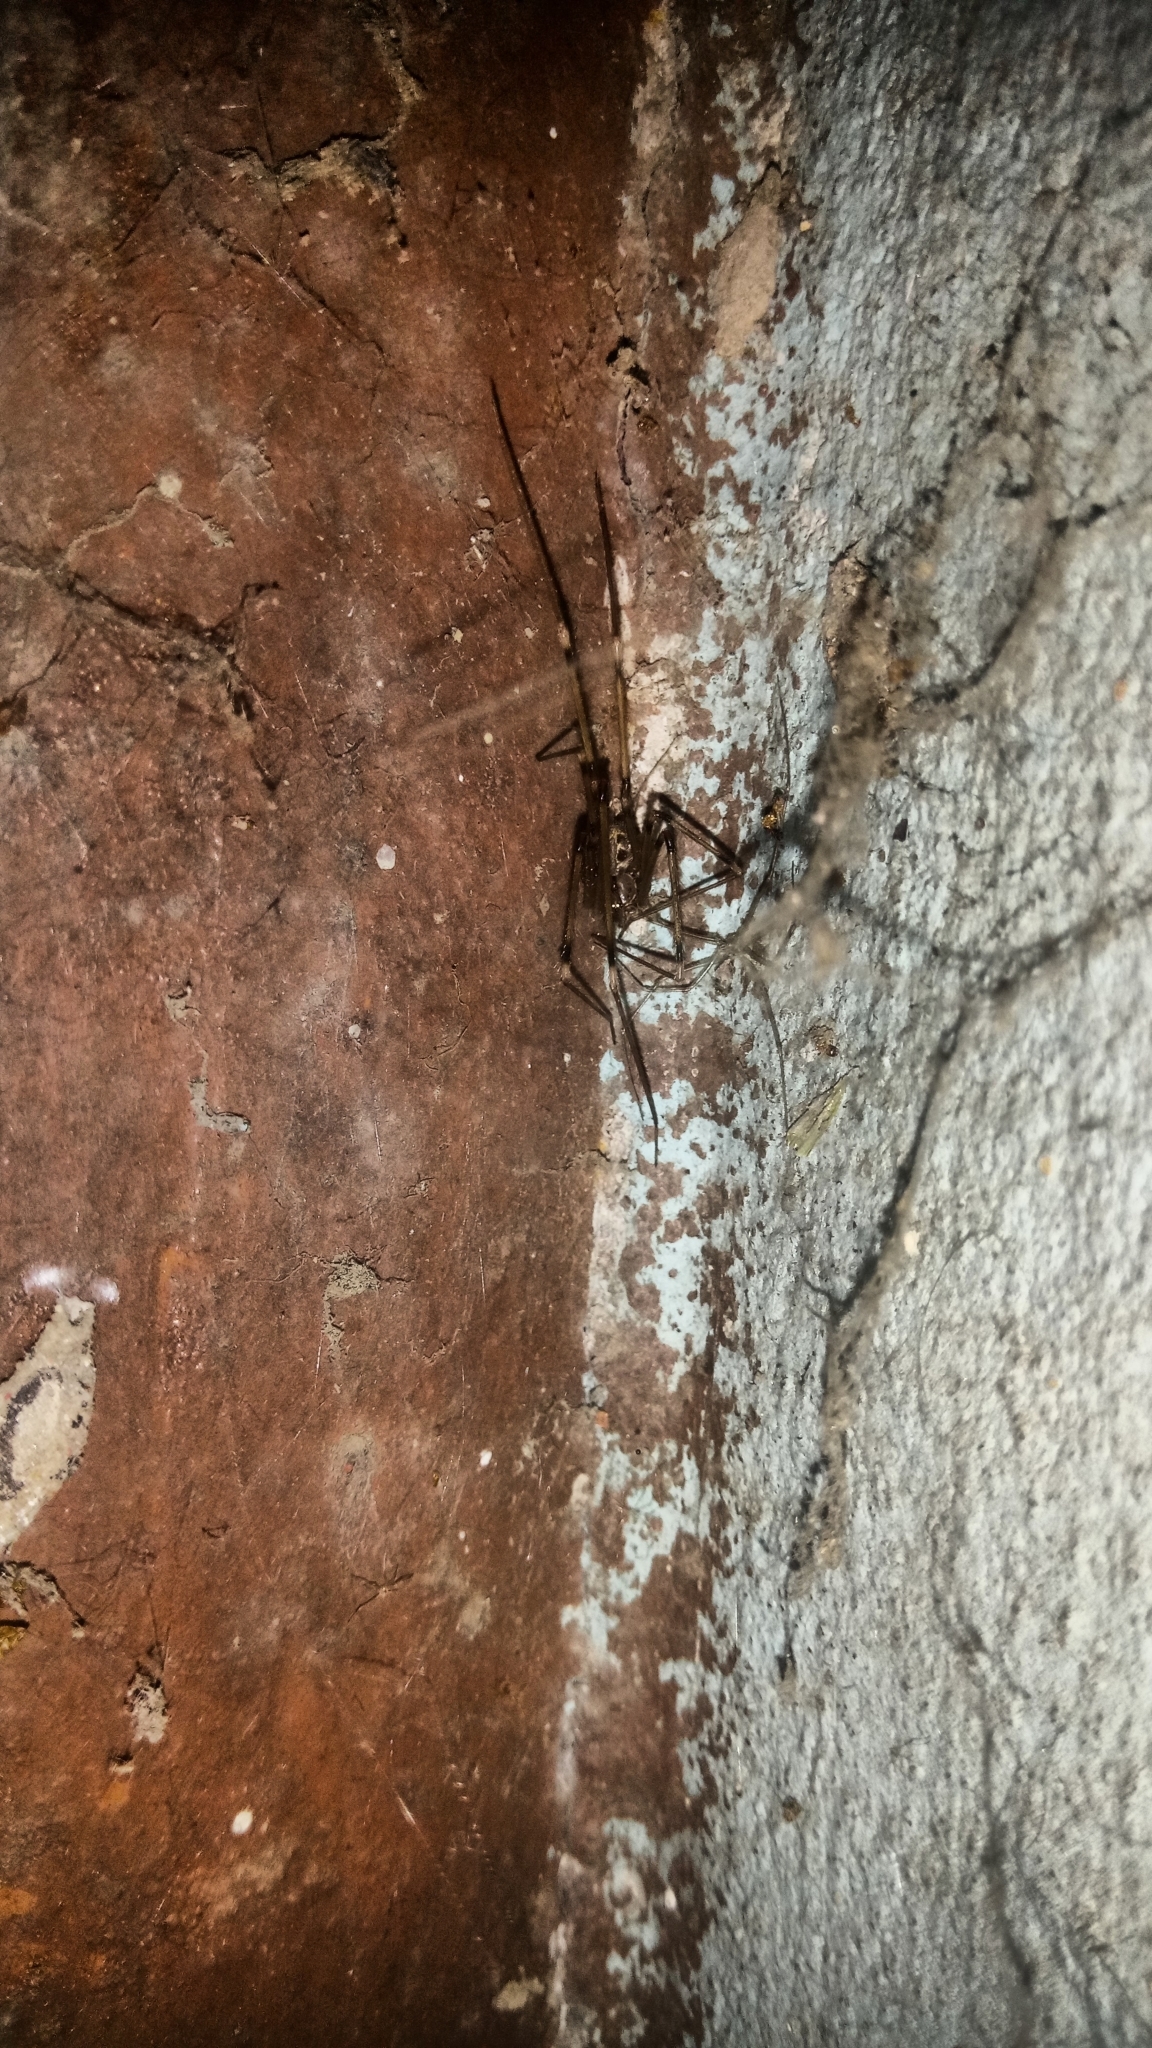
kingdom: Animalia
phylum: Arthropoda
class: Arachnida
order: Araneae
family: Pholcidae
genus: Artema
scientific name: Artema atlanta
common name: Cellar spider
